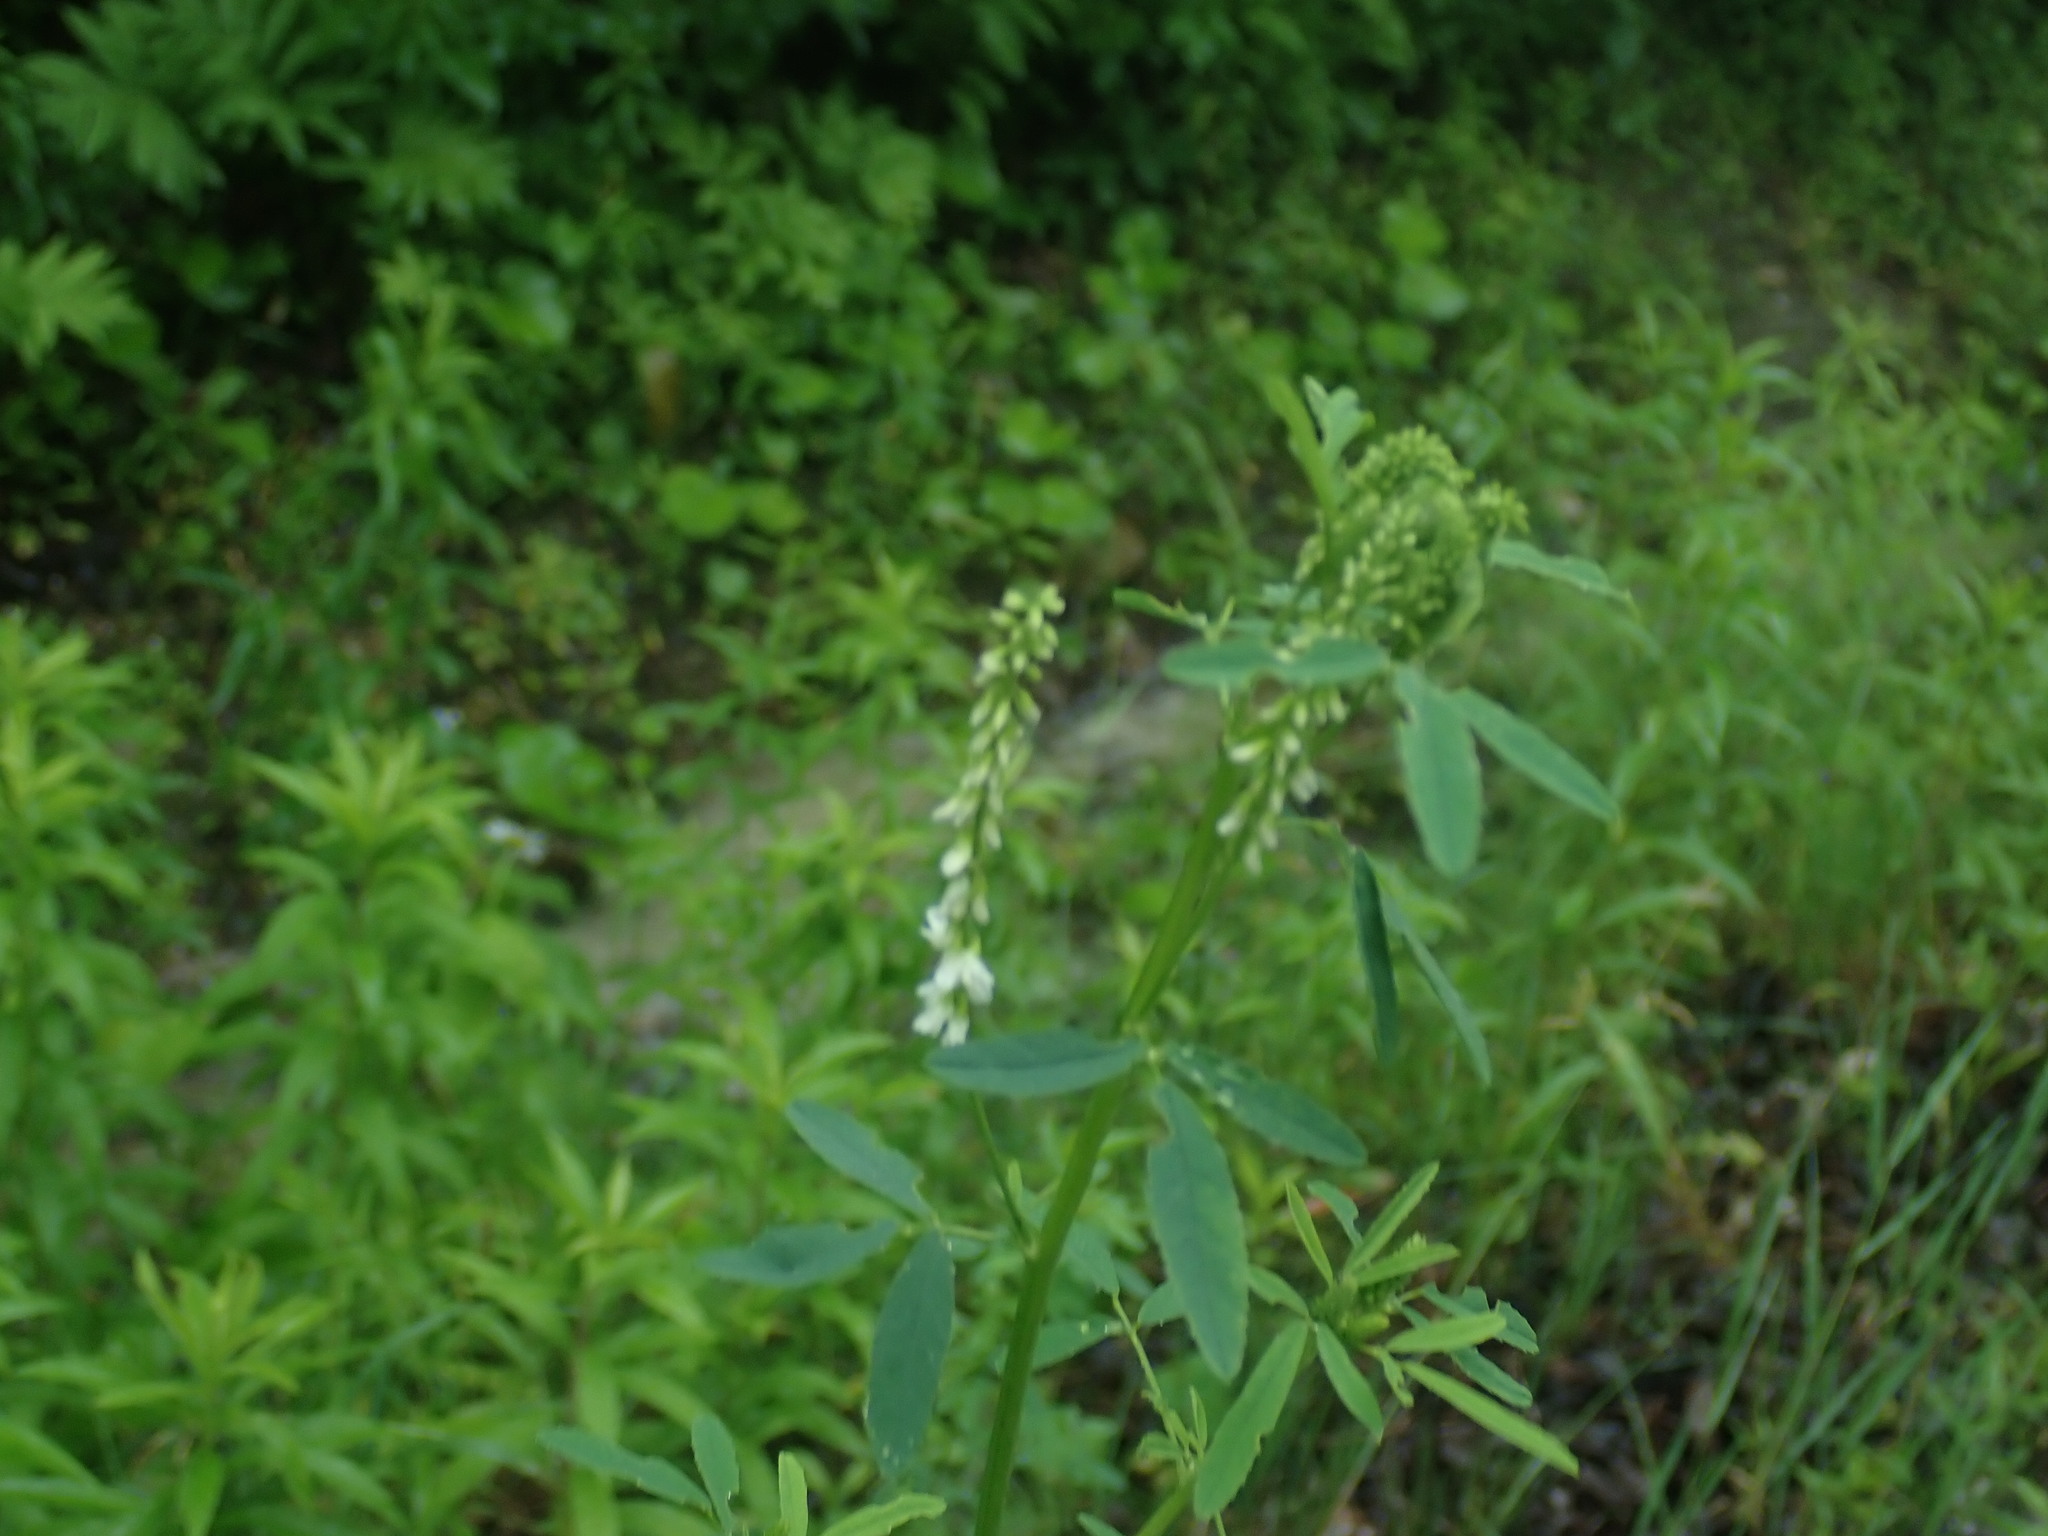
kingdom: Plantae
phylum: Tracheophyta
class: Magnoliopsida
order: Fabales
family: Fabaceae
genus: Melilotus
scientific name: Melilotus albus
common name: White melilot
